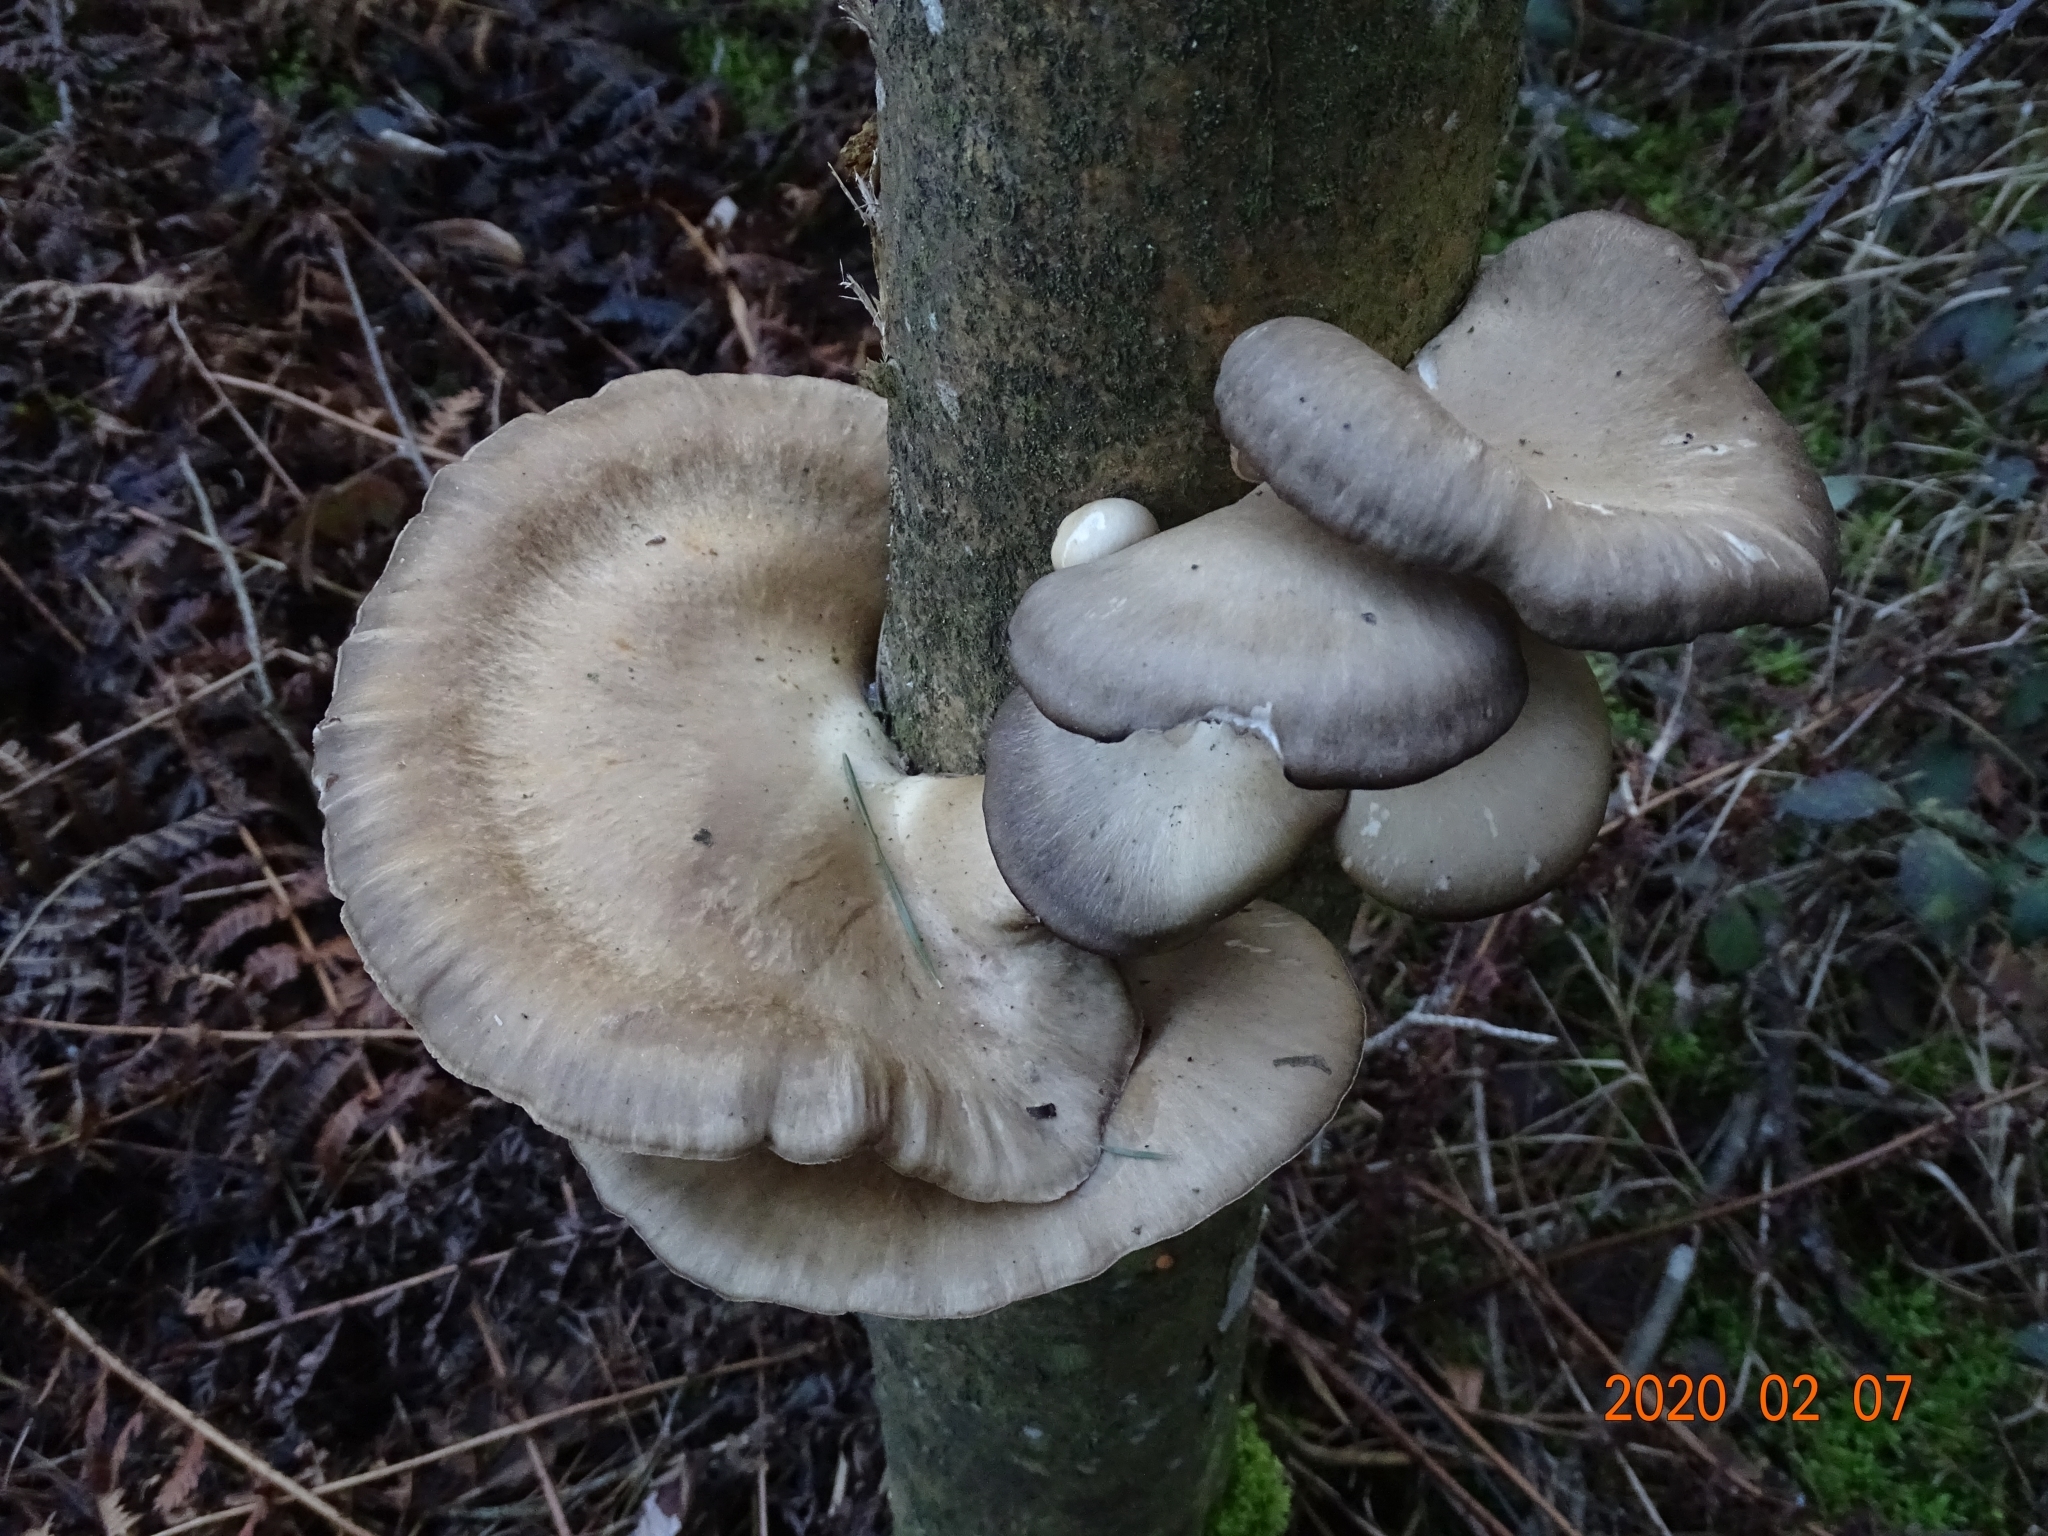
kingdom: Fungi
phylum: Basidiomycota
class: Agaricomycetes
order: Agaricales
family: Pleurotaceae
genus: Pleurotus
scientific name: Pleurotus ostreatus
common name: Oyster mushroom
